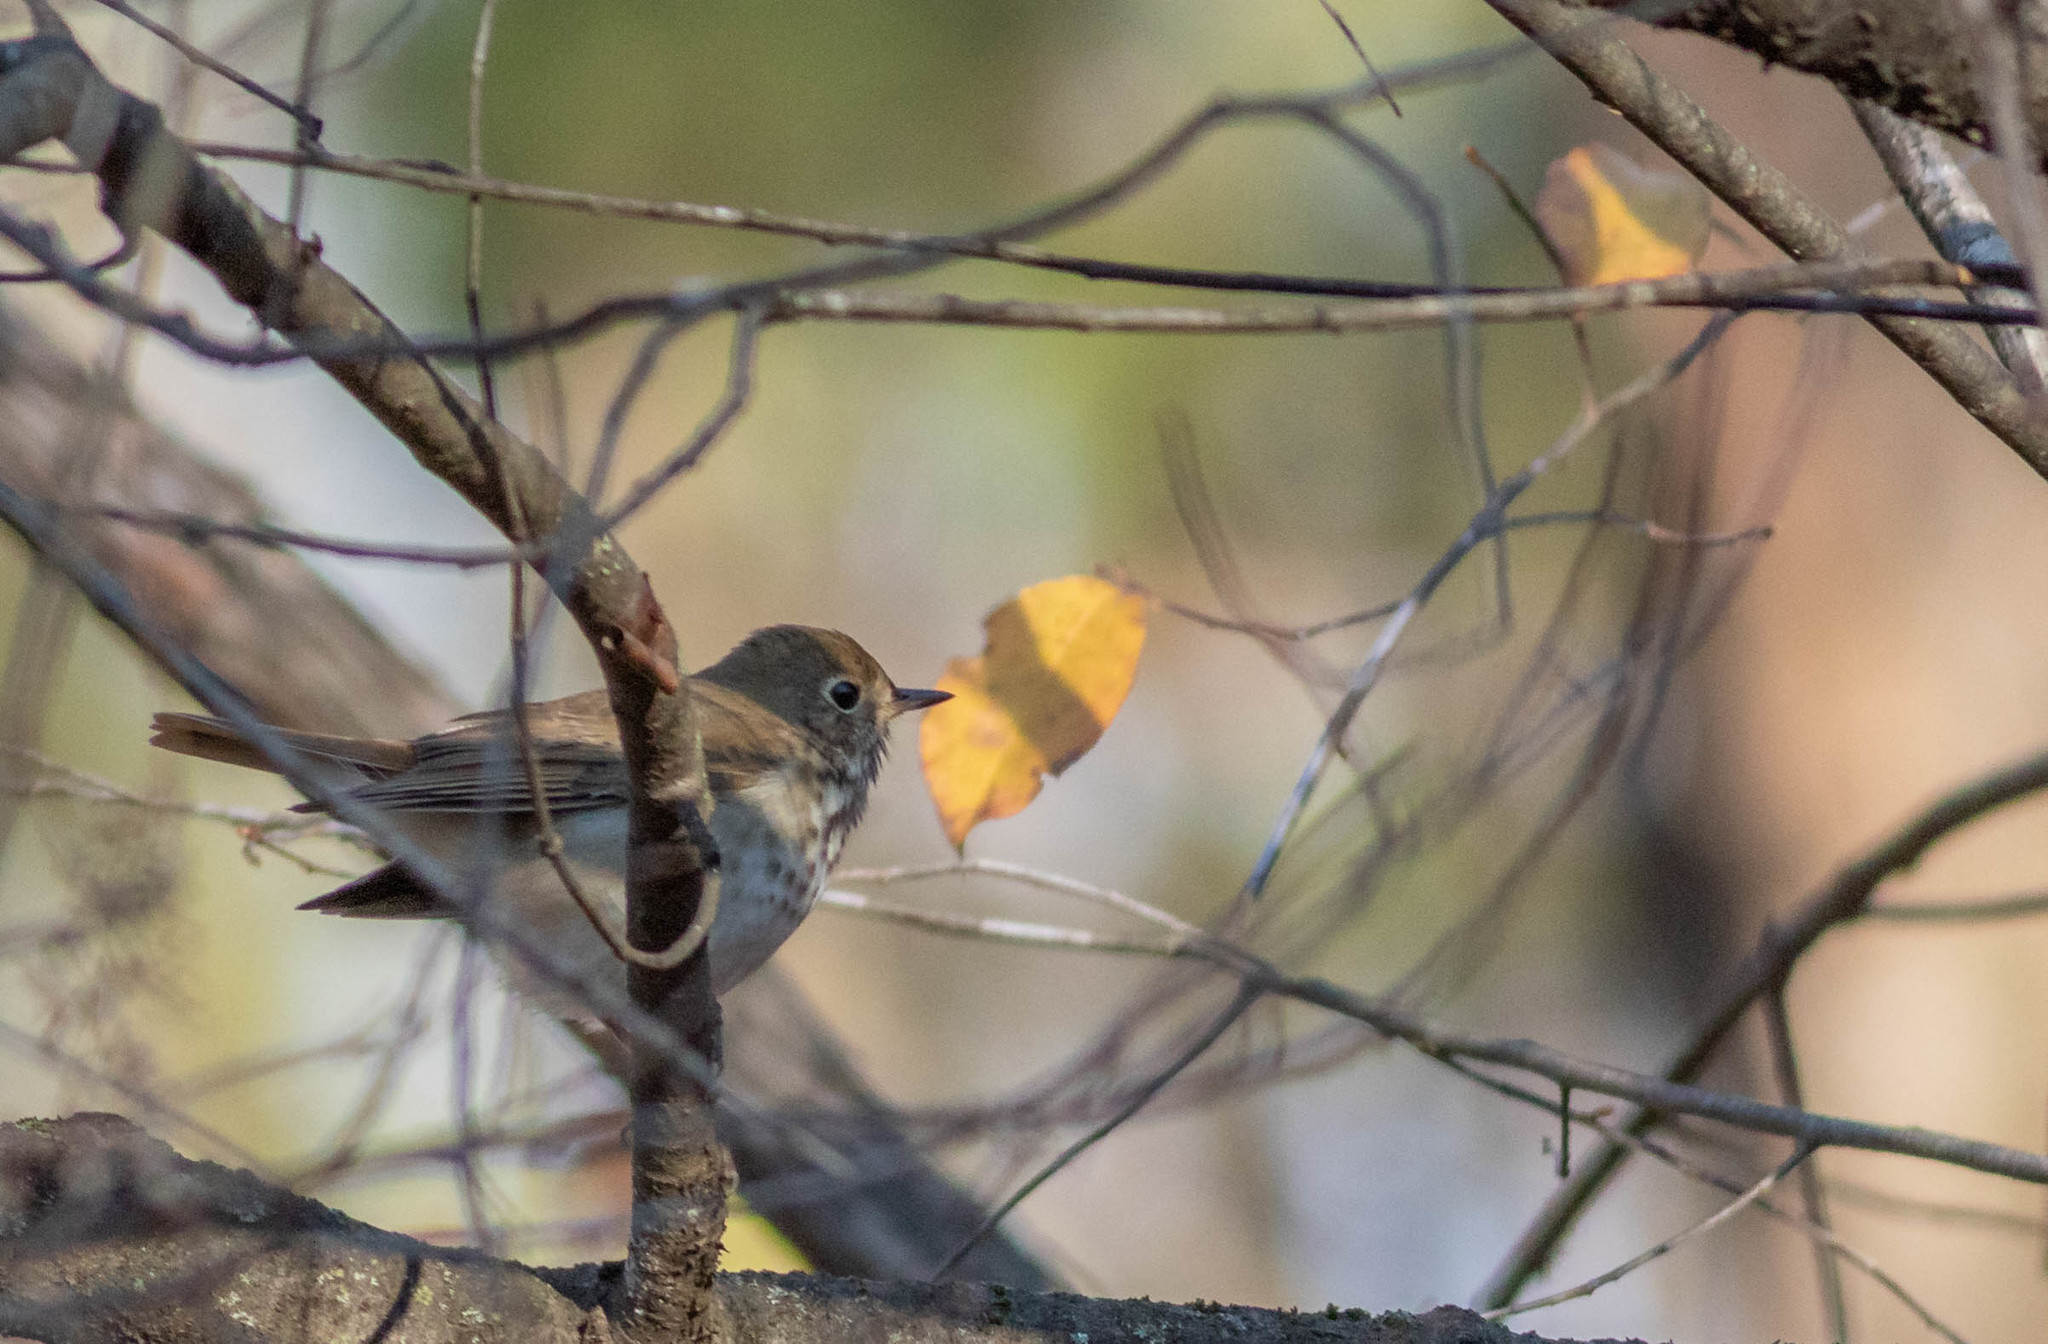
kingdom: Animalia
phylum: Chordata
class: Aves
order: Passeriformes
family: Turdidae
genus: Catharus
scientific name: Catharus guttatus
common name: Hermit thrush
